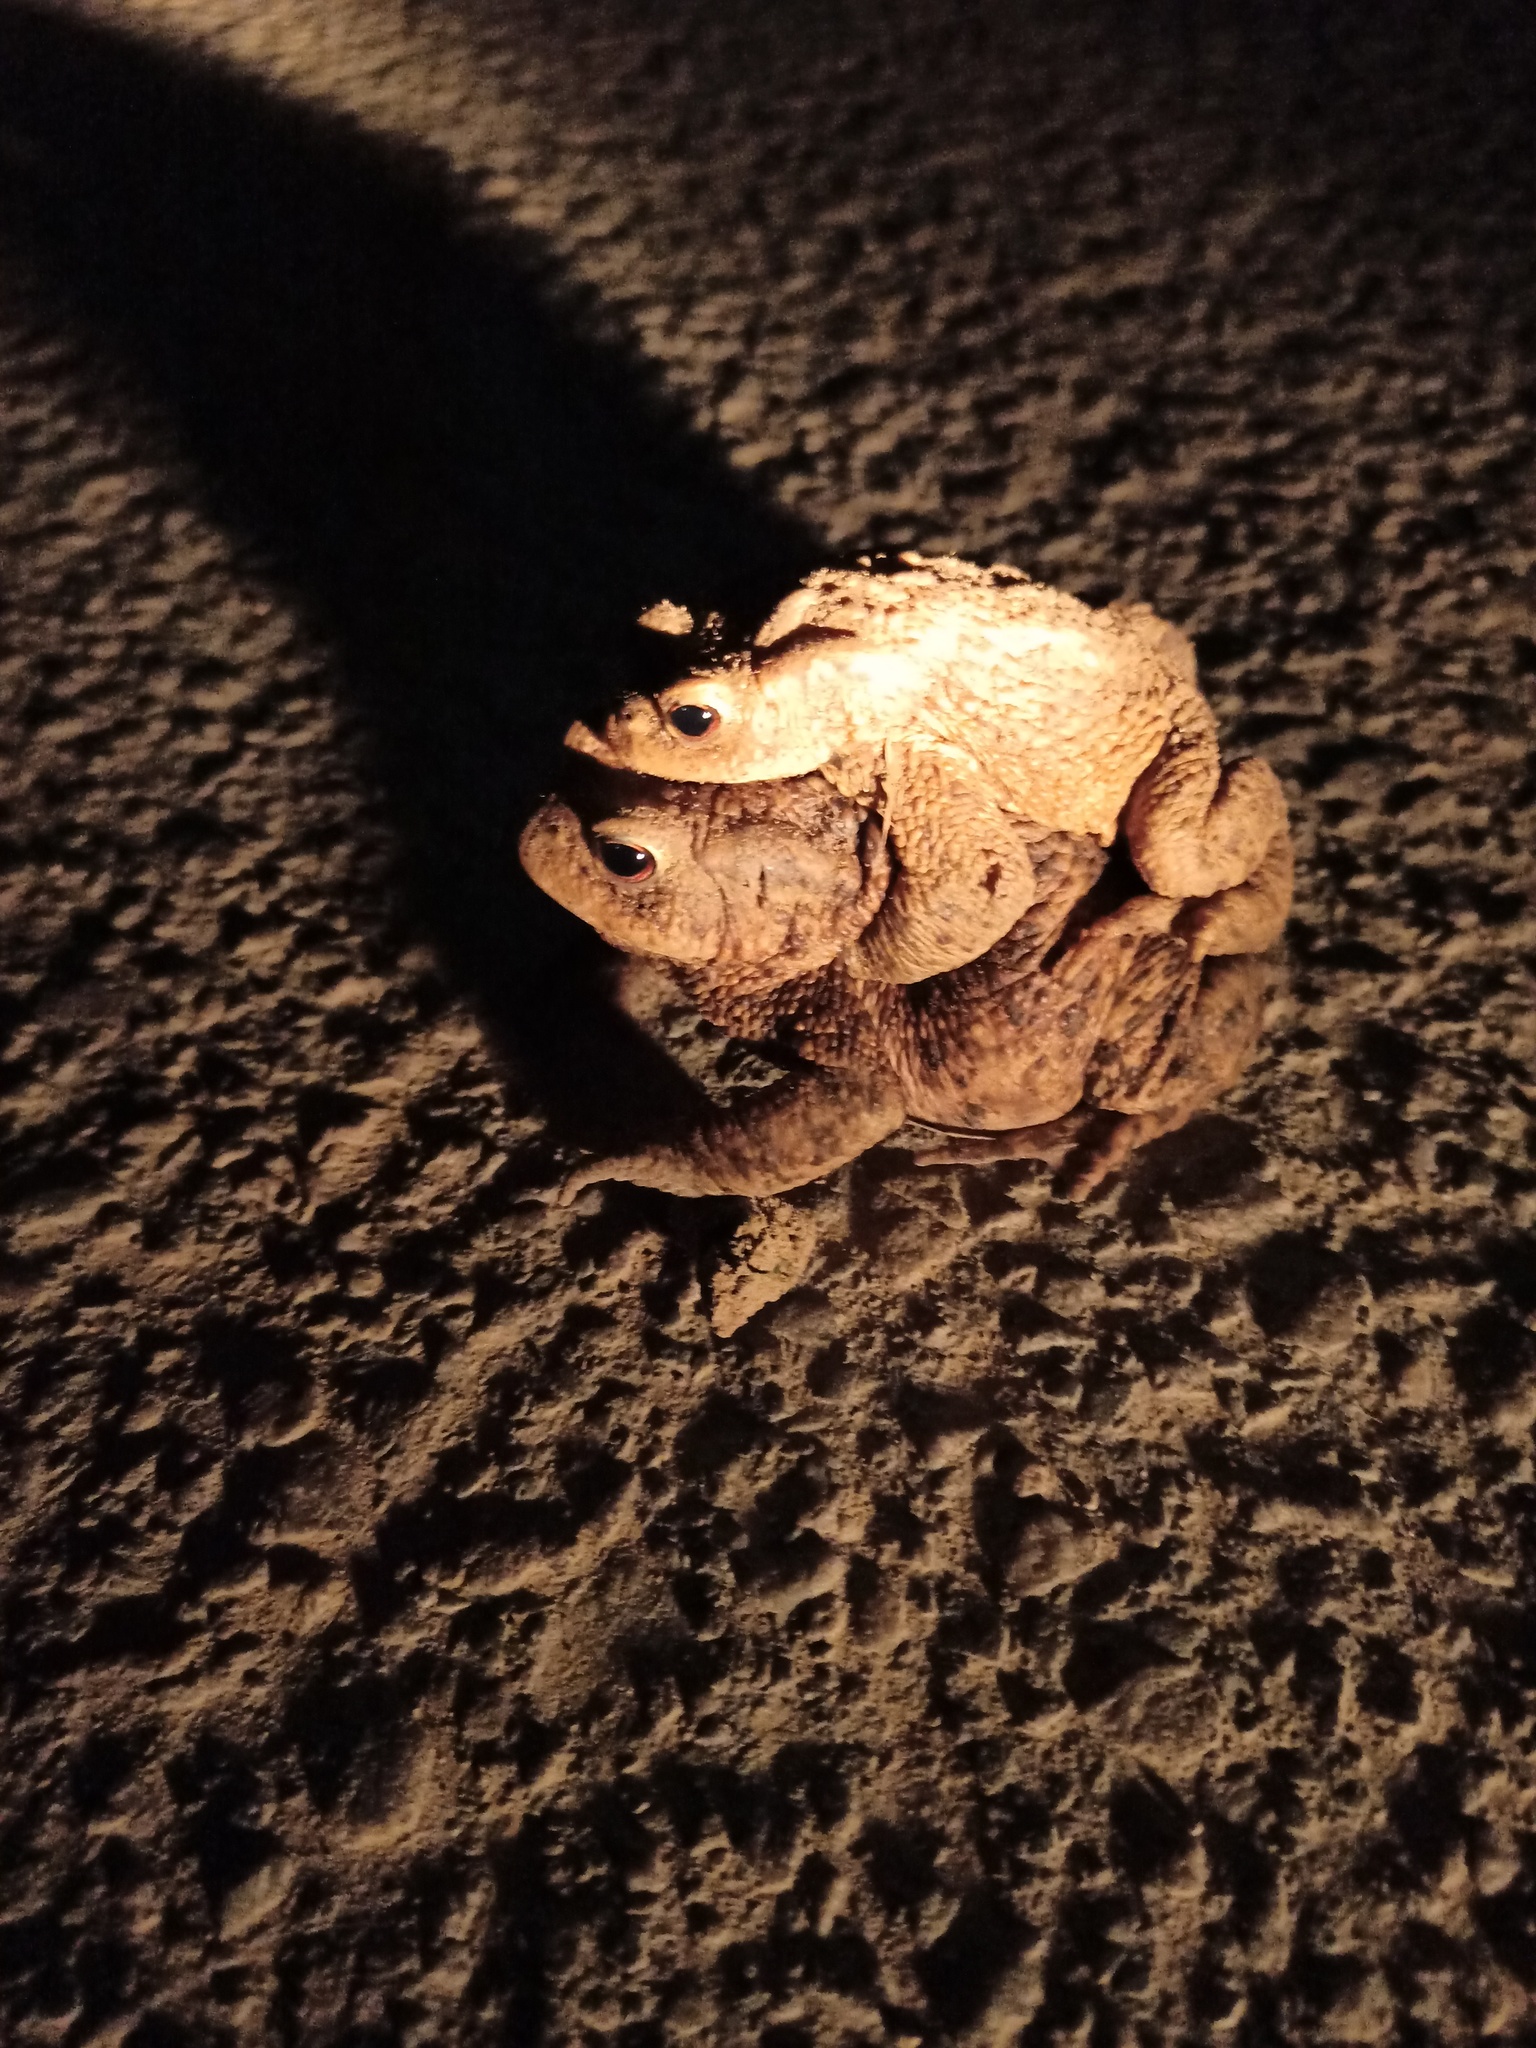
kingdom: Animalia
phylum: Chordata
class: Amphibia
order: Anura
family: Bufonidae
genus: Bufo
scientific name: Bufo bufo
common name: Common toad
